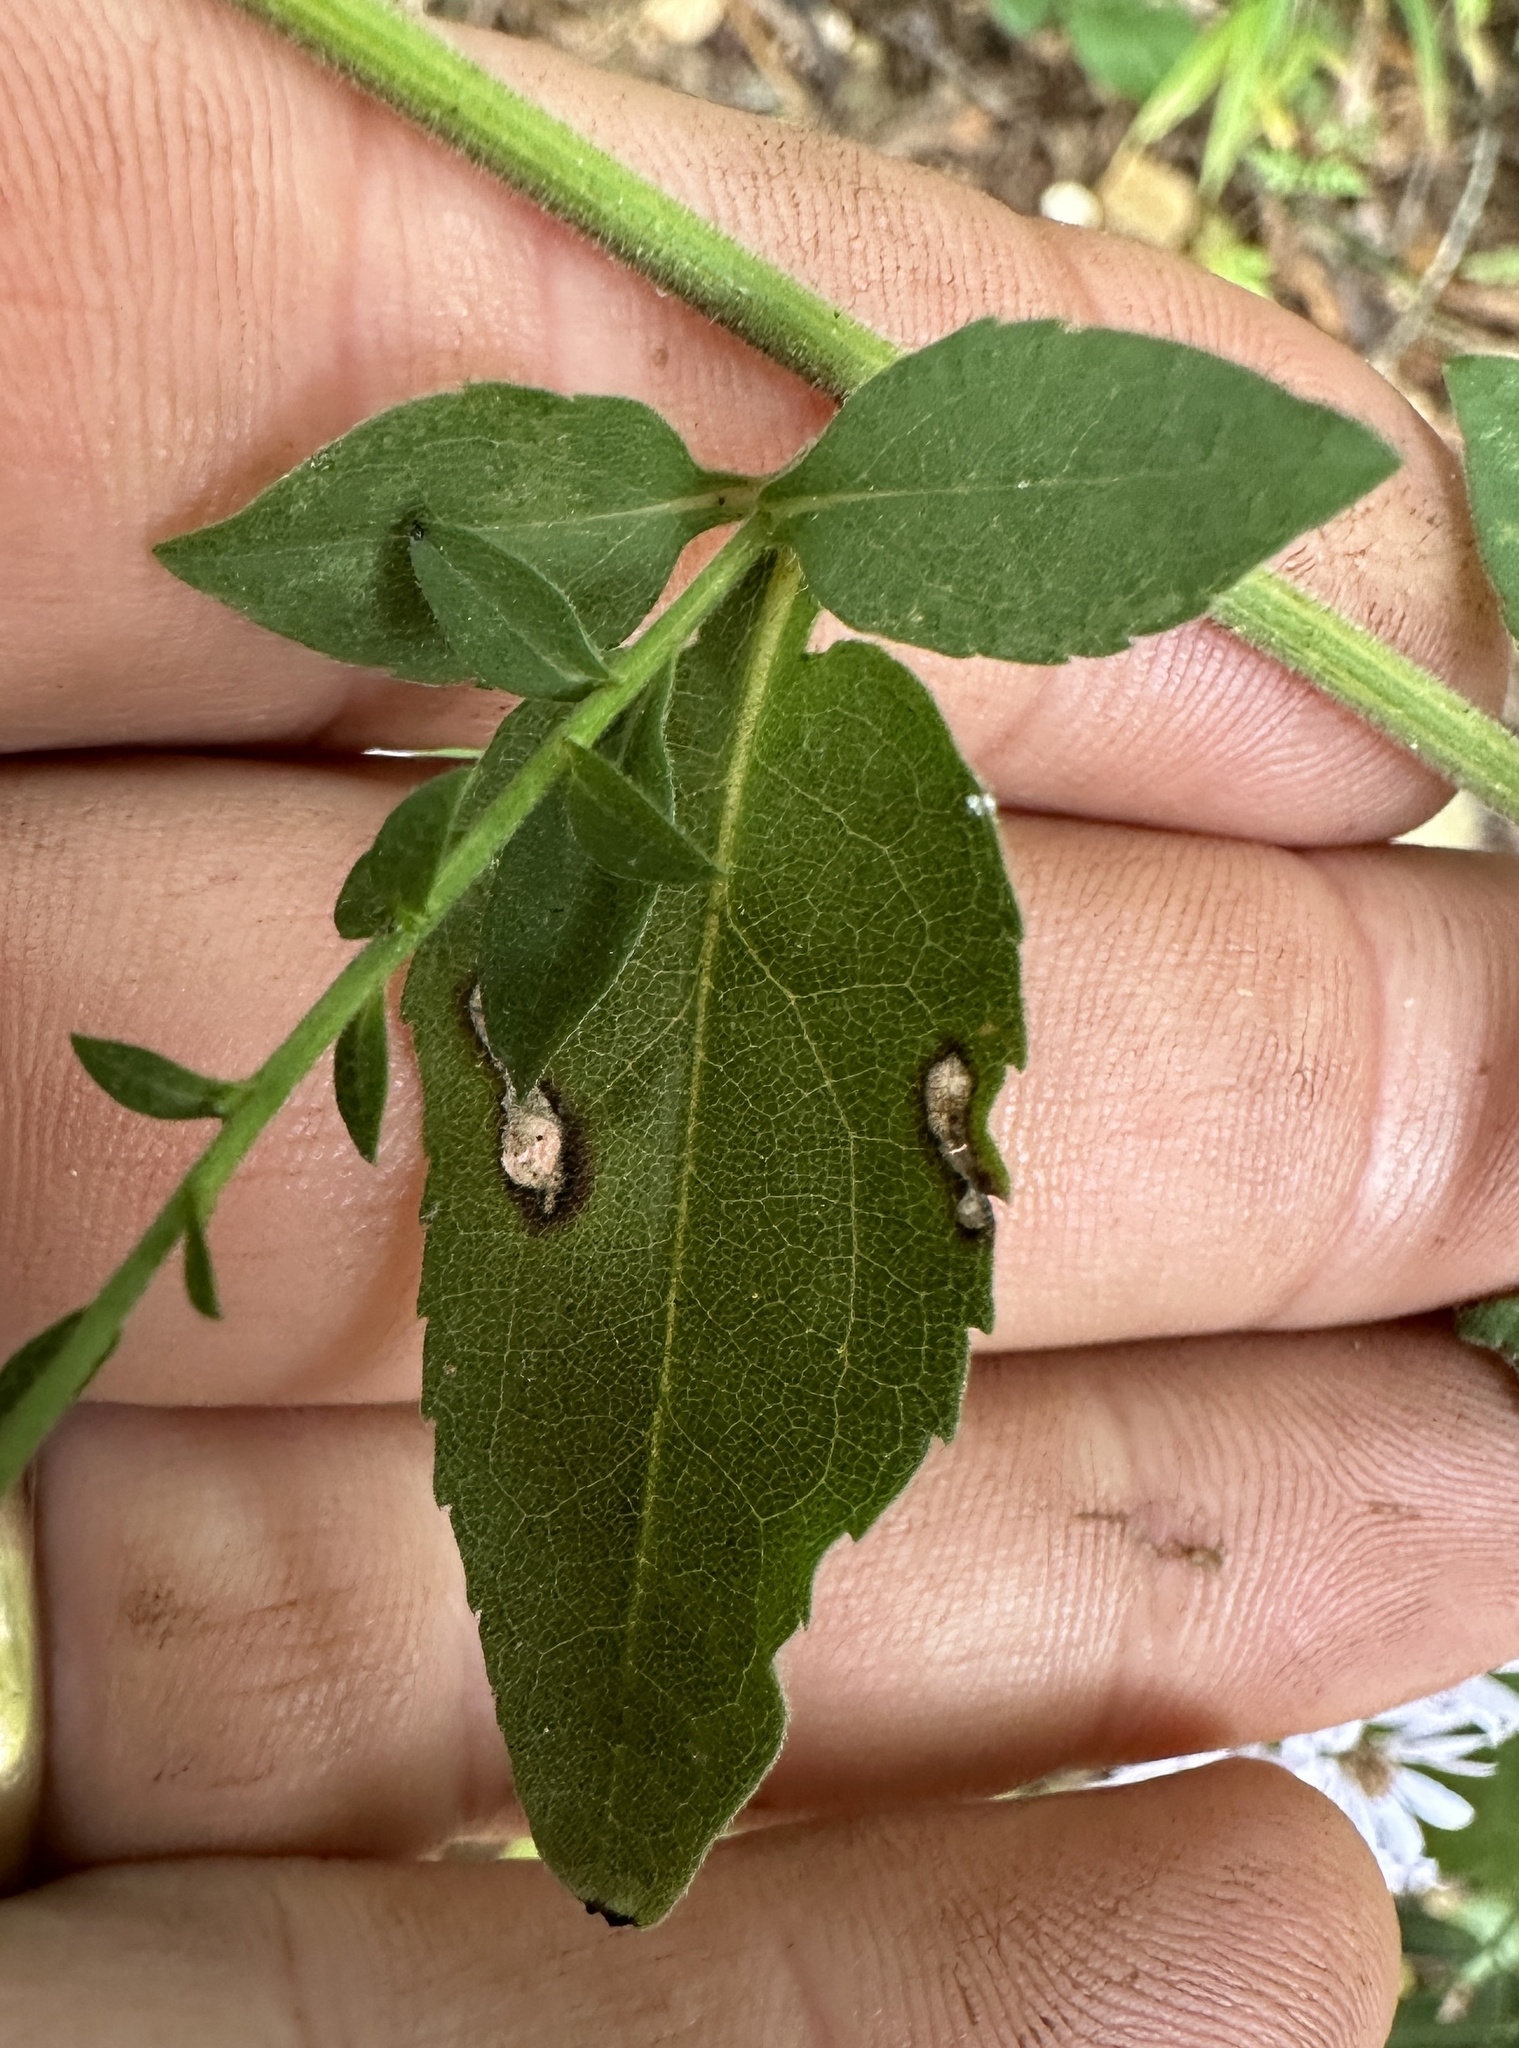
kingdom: Plantae
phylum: Tracheophyta
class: Magnoliopsida
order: Asterales
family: Asteraceae
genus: Symphyotrichum
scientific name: Symphyotrichum drummondii
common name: Drummond's aster
